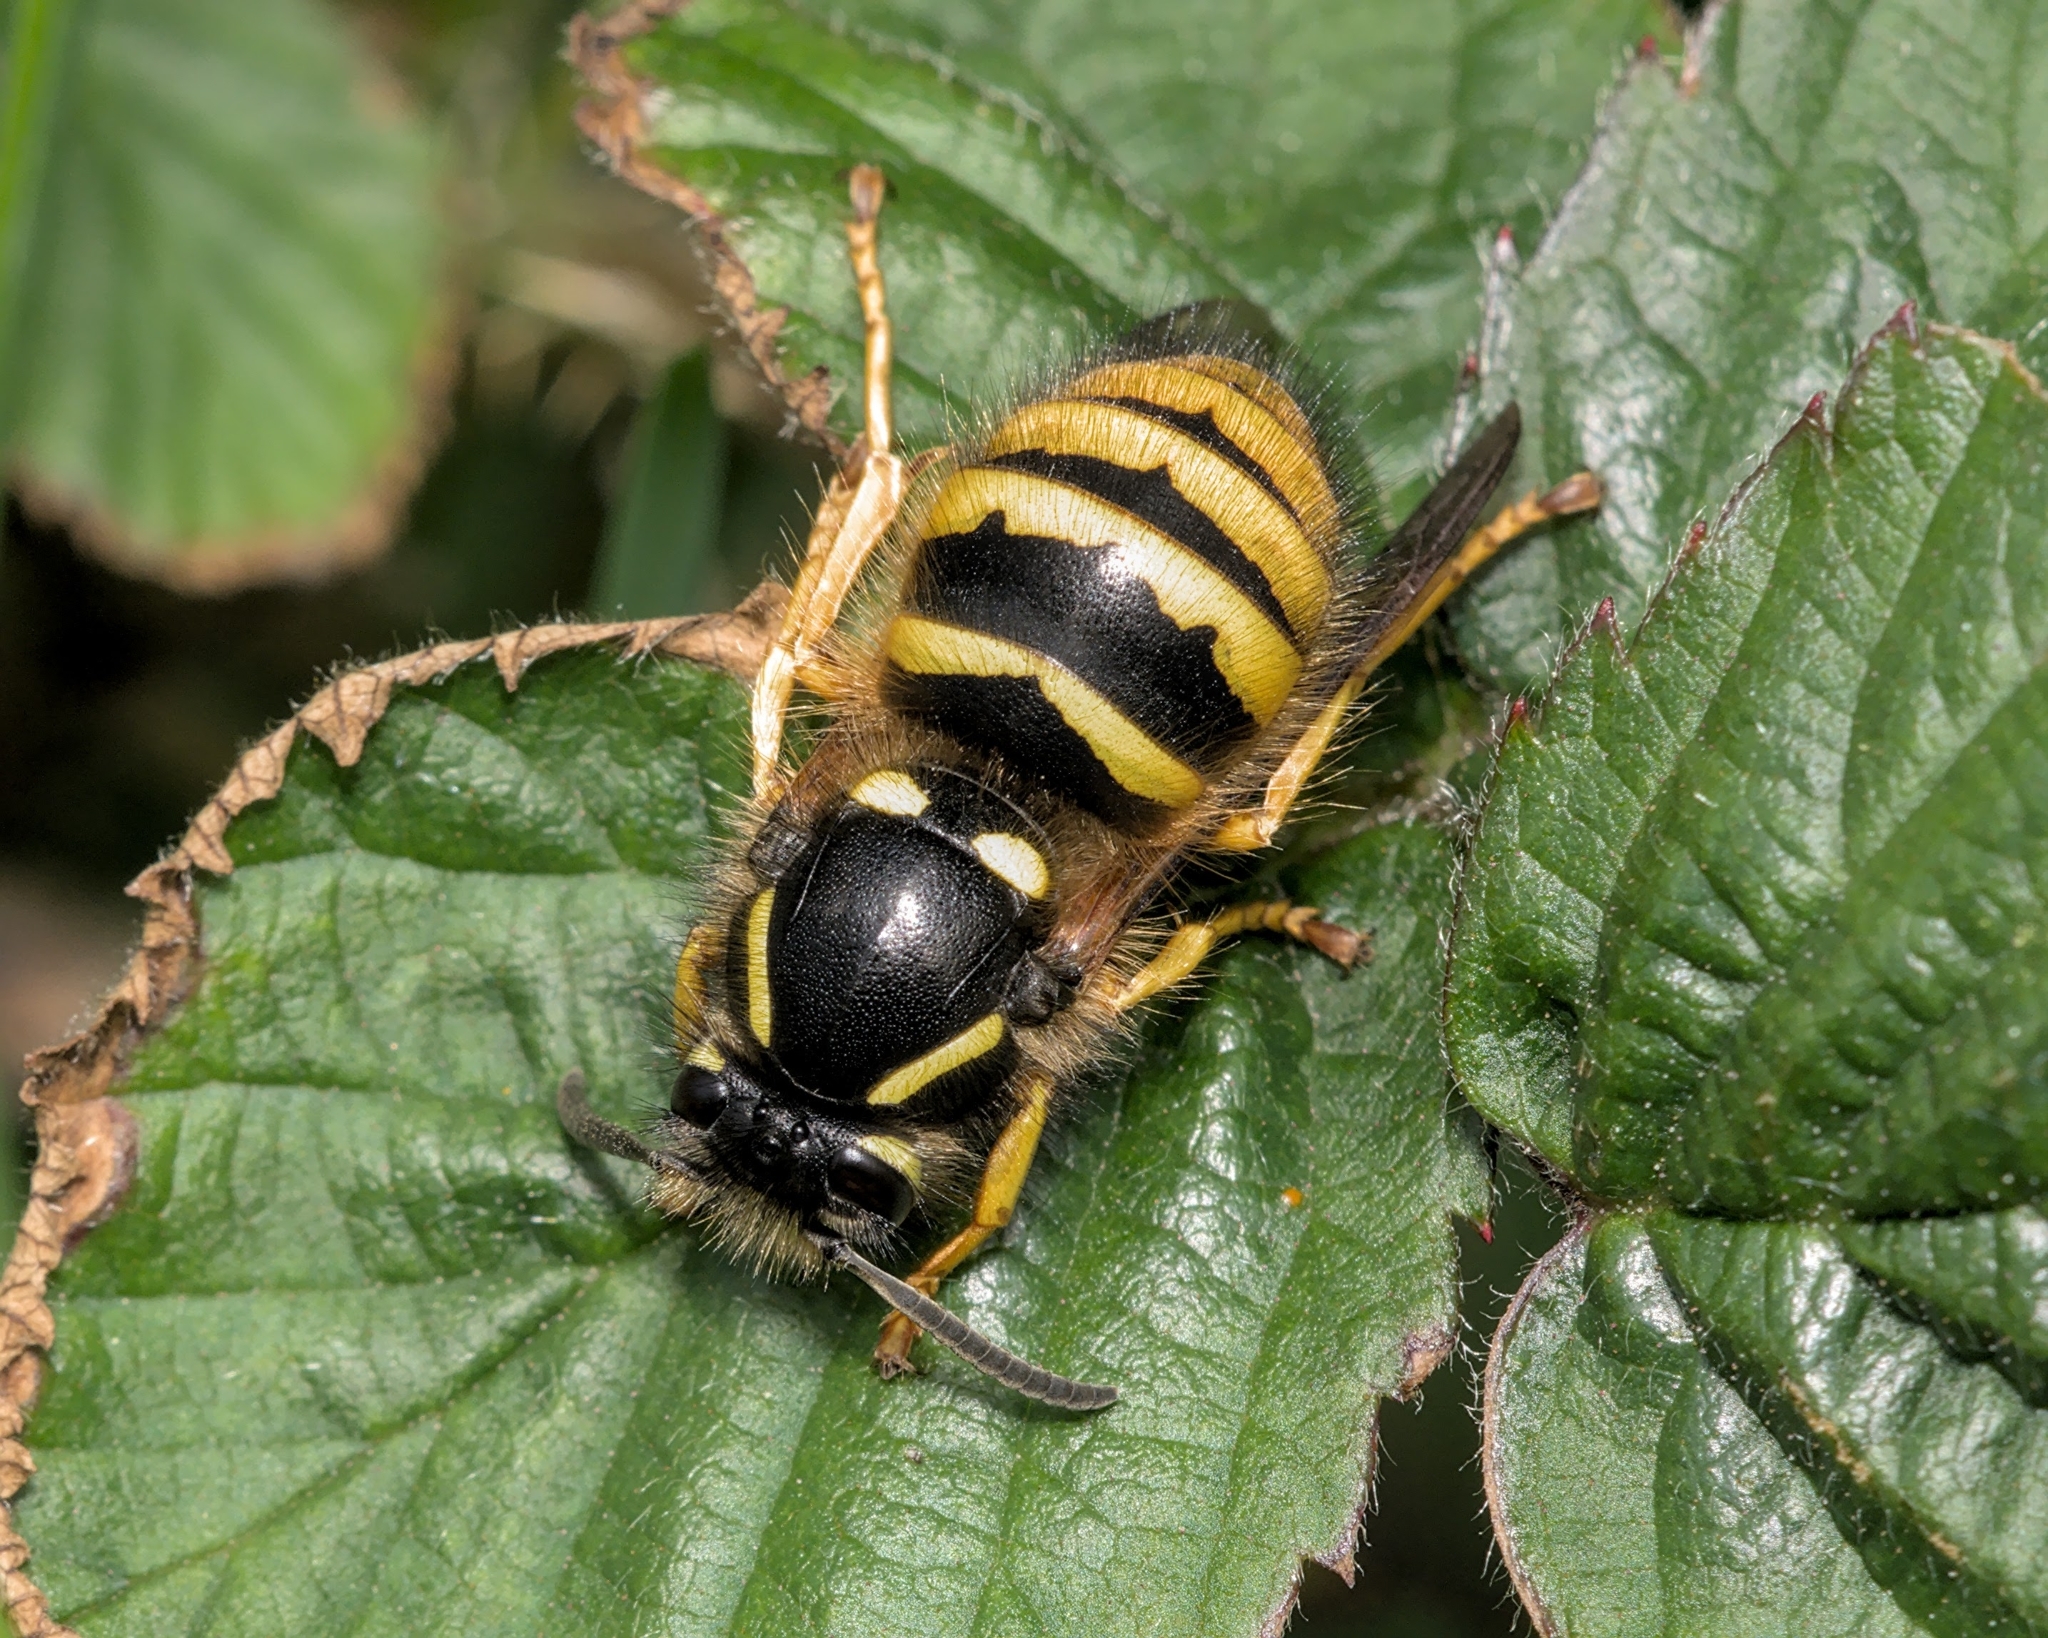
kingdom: Animalia
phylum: Arthropoda
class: Insecta
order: Hymenoptera
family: Vespidae
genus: Dolichovespula
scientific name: Dolichovespula sylvestris
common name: Tree wasp
